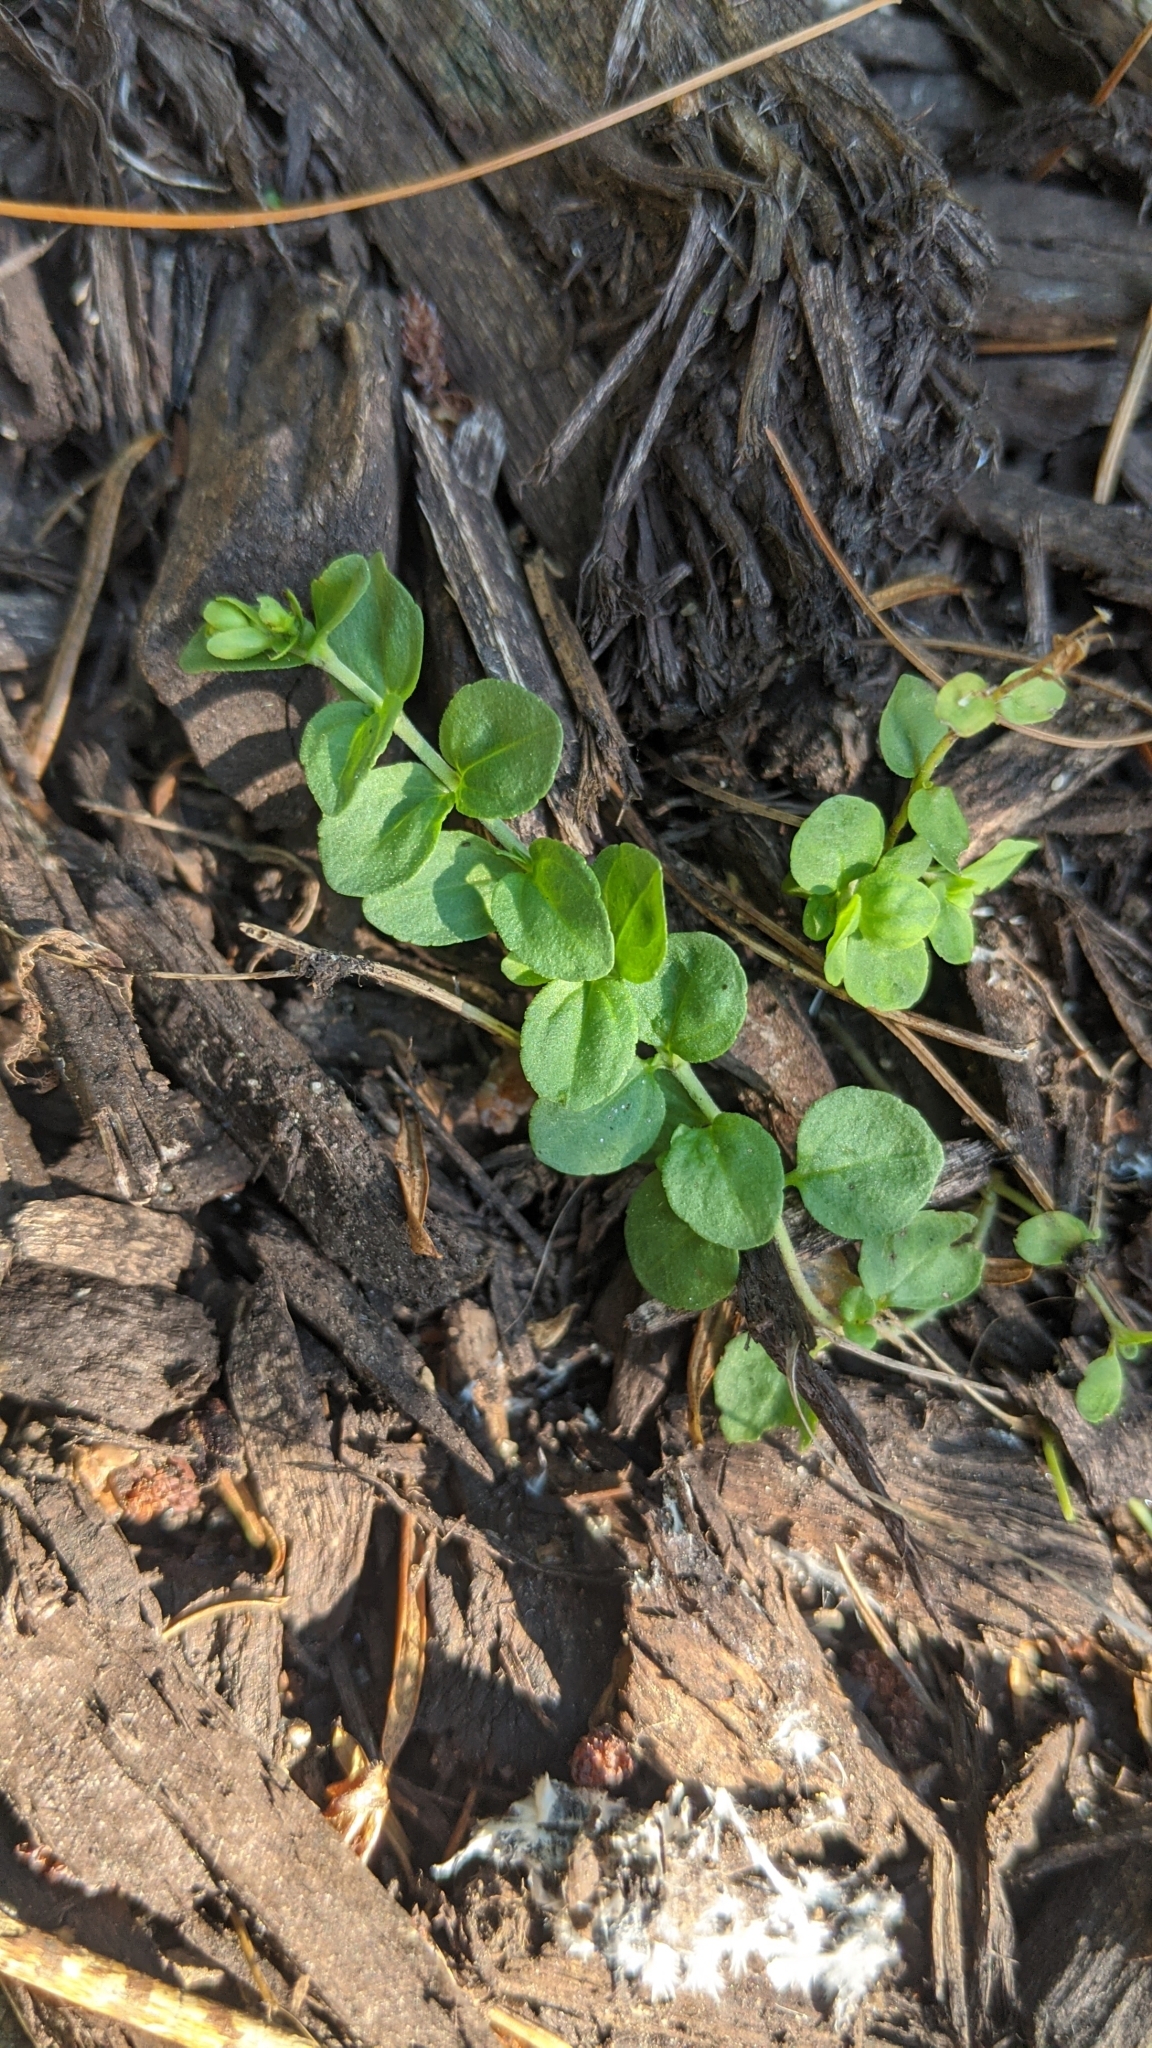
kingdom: Plantae
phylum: Tracheophyta
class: Magnoliopsida
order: Lamiales
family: Plantaginaceae
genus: Veronica
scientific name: Veronica serpyllifolia
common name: Thyme-leaved speedwell
